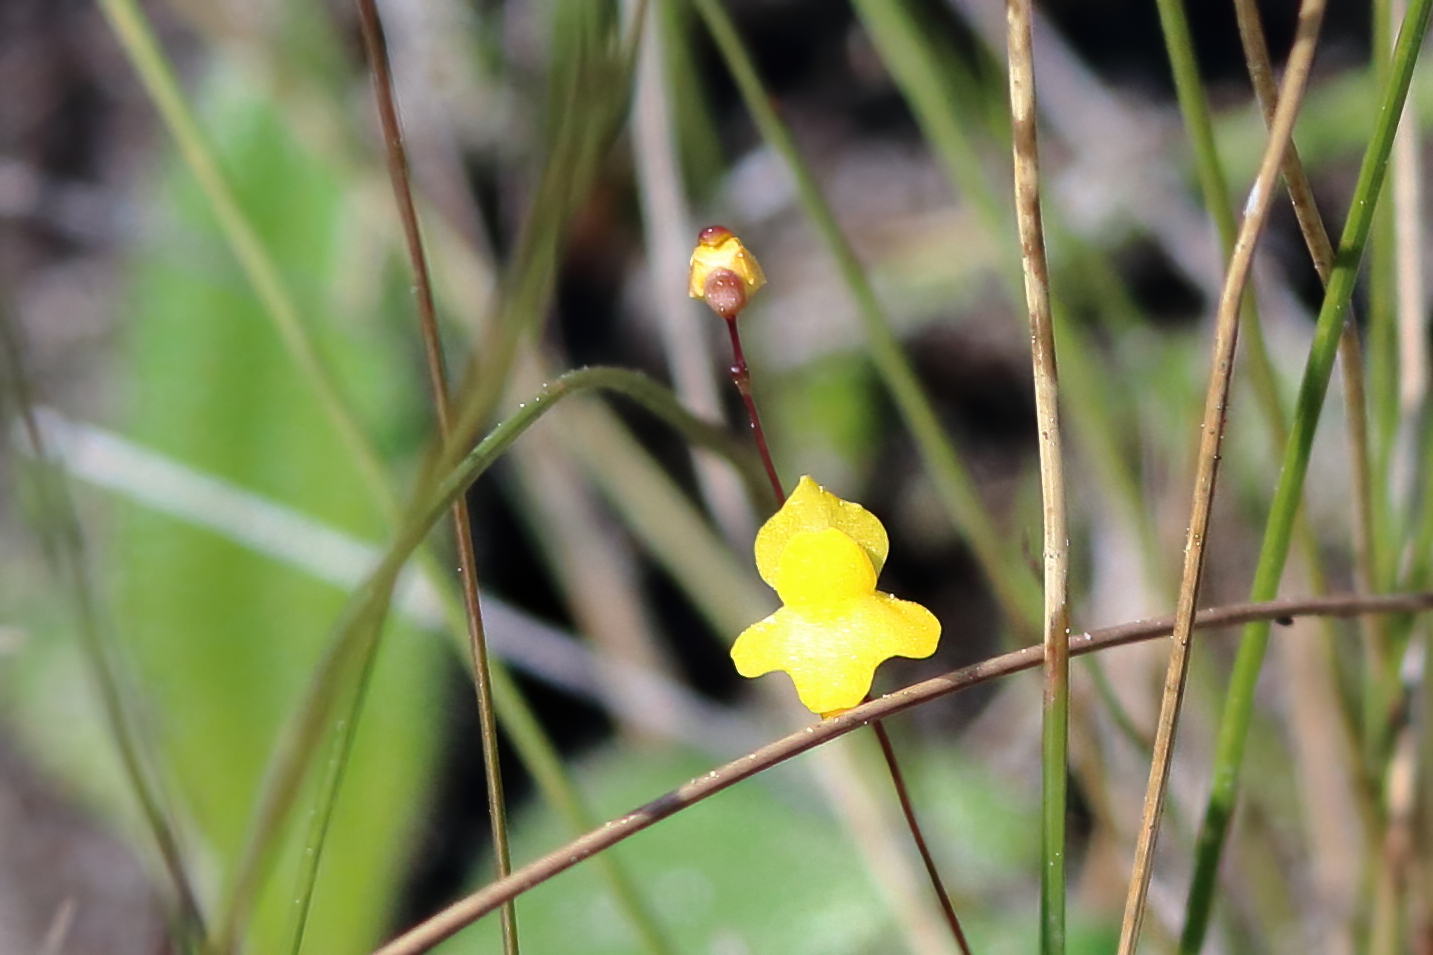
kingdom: Plantae
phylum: Tracheophyta
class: Magnoliopsida
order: Lamiales
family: Lentibulariaceae
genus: Utricularia
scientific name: Utricularia subulata
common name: Tiny bladderwort
